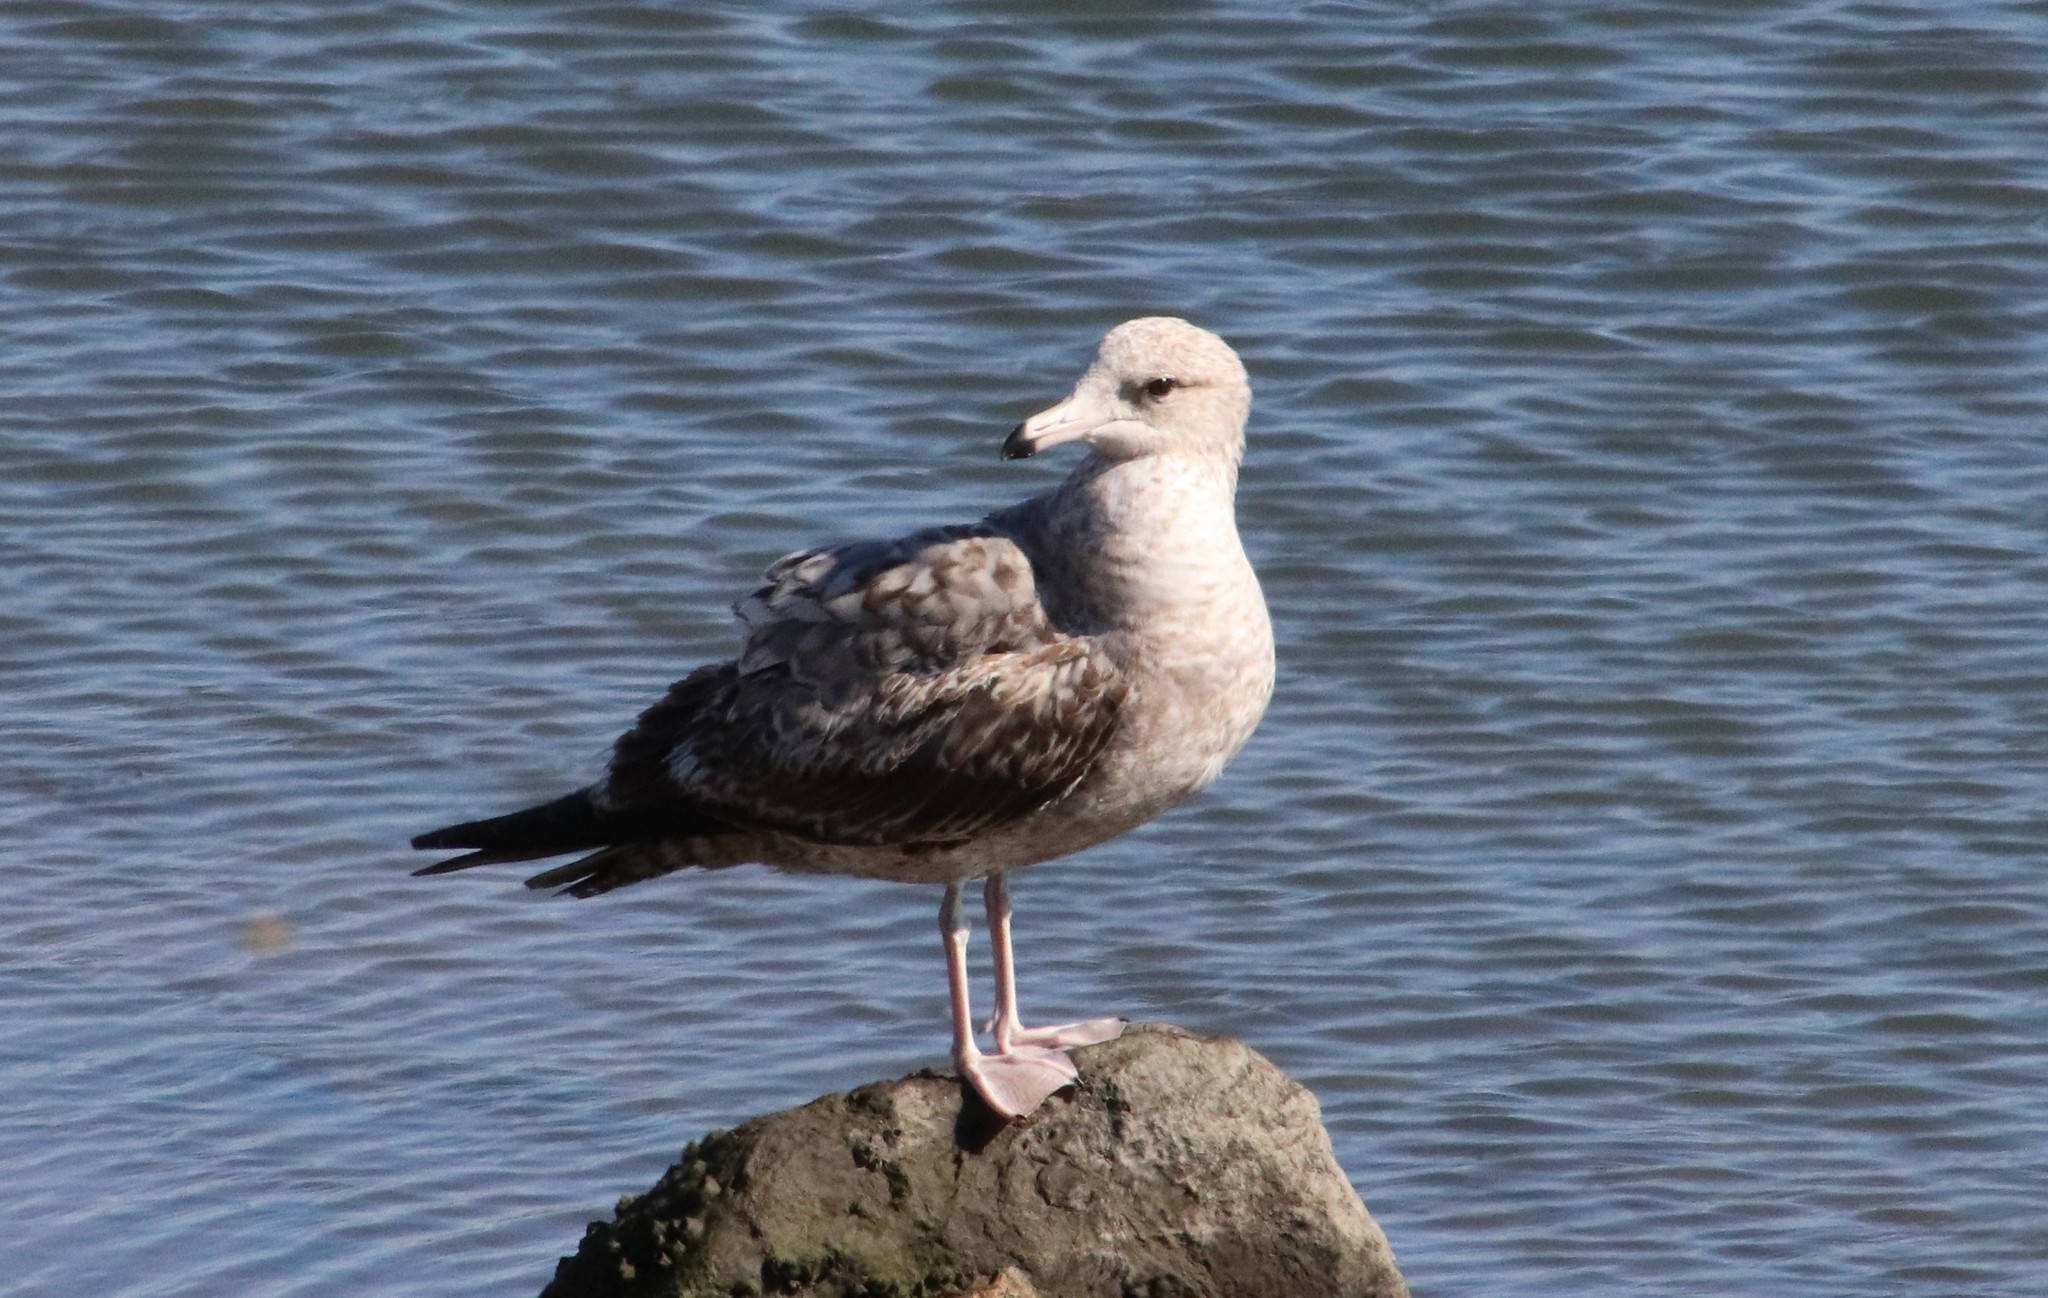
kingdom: Animalia
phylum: Chordata
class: Aves
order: Charadriiformes
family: Laridae
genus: Larus
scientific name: Larus californicus
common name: California gull
